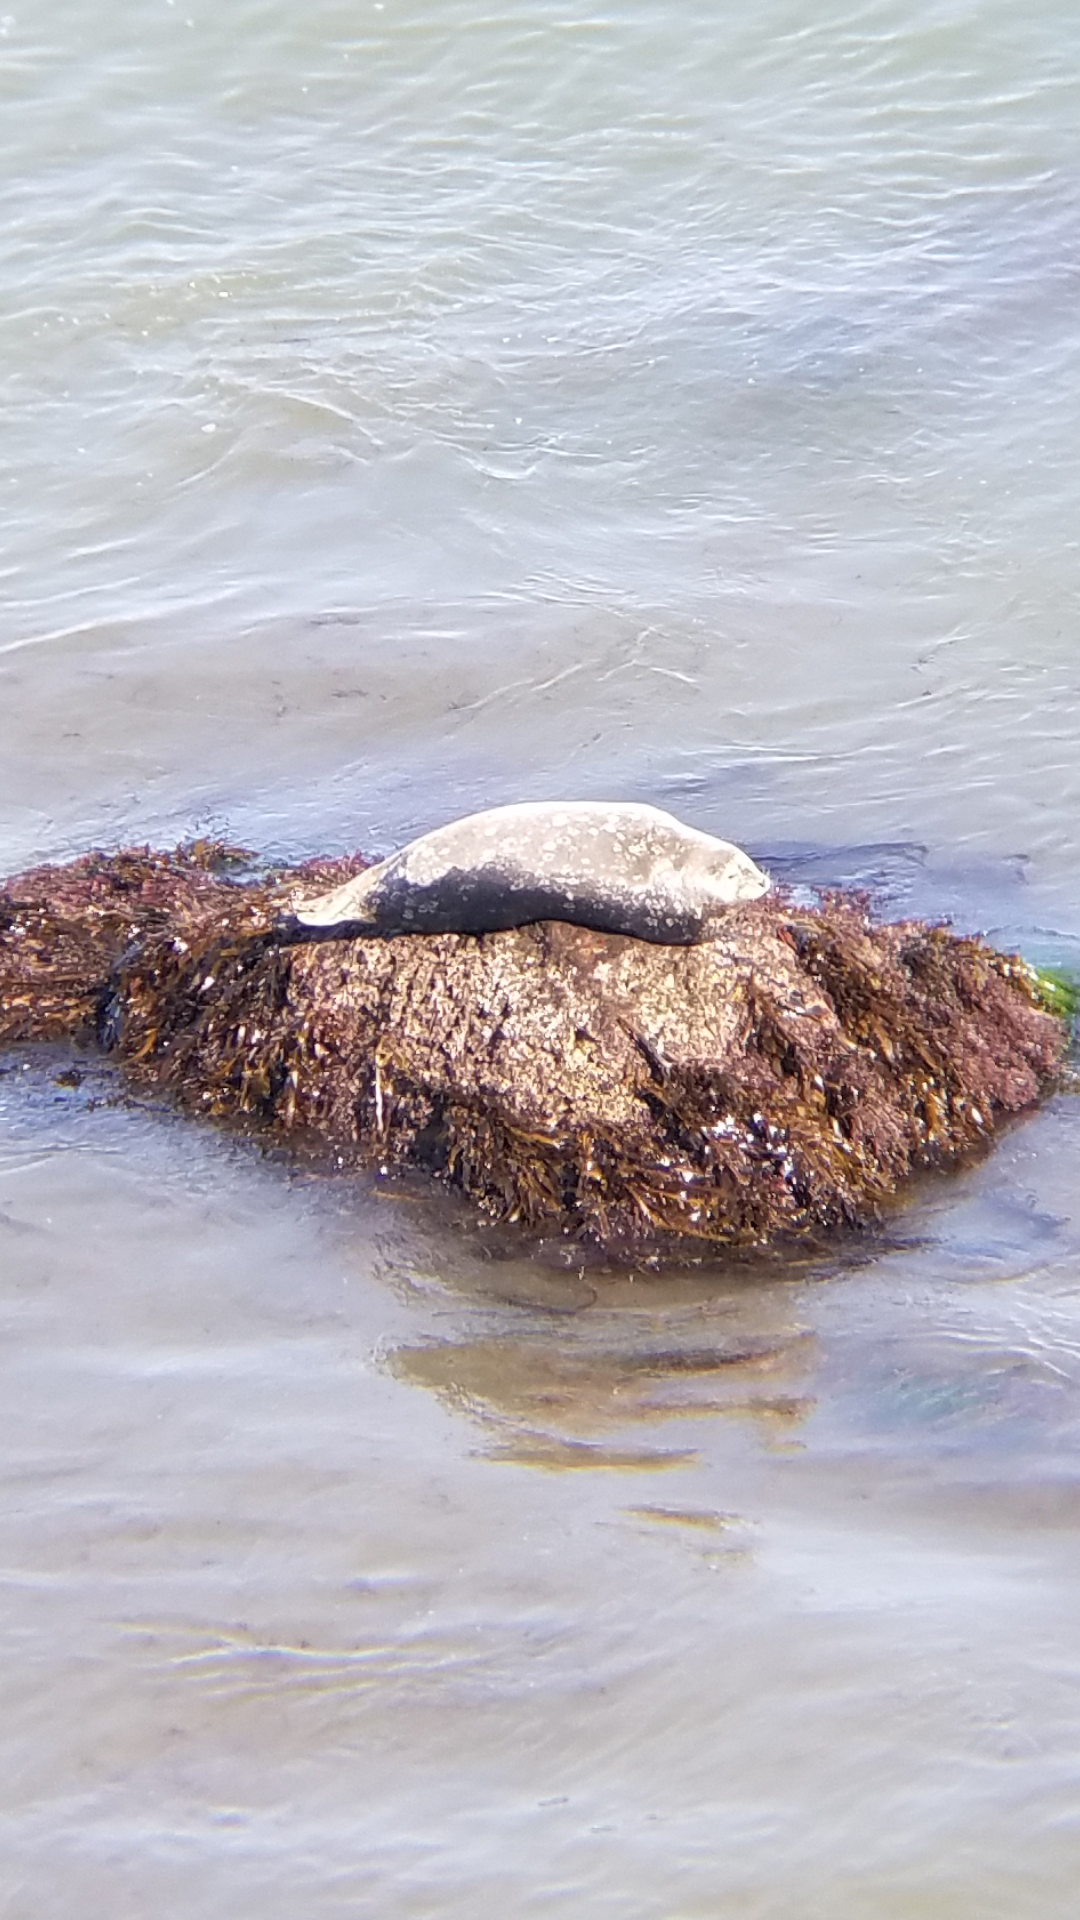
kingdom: Animalia
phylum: Chordata
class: Mammalia
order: Carnivora
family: Phocidae
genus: Phoca
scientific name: Phoca vitulina
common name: Harbor seal
